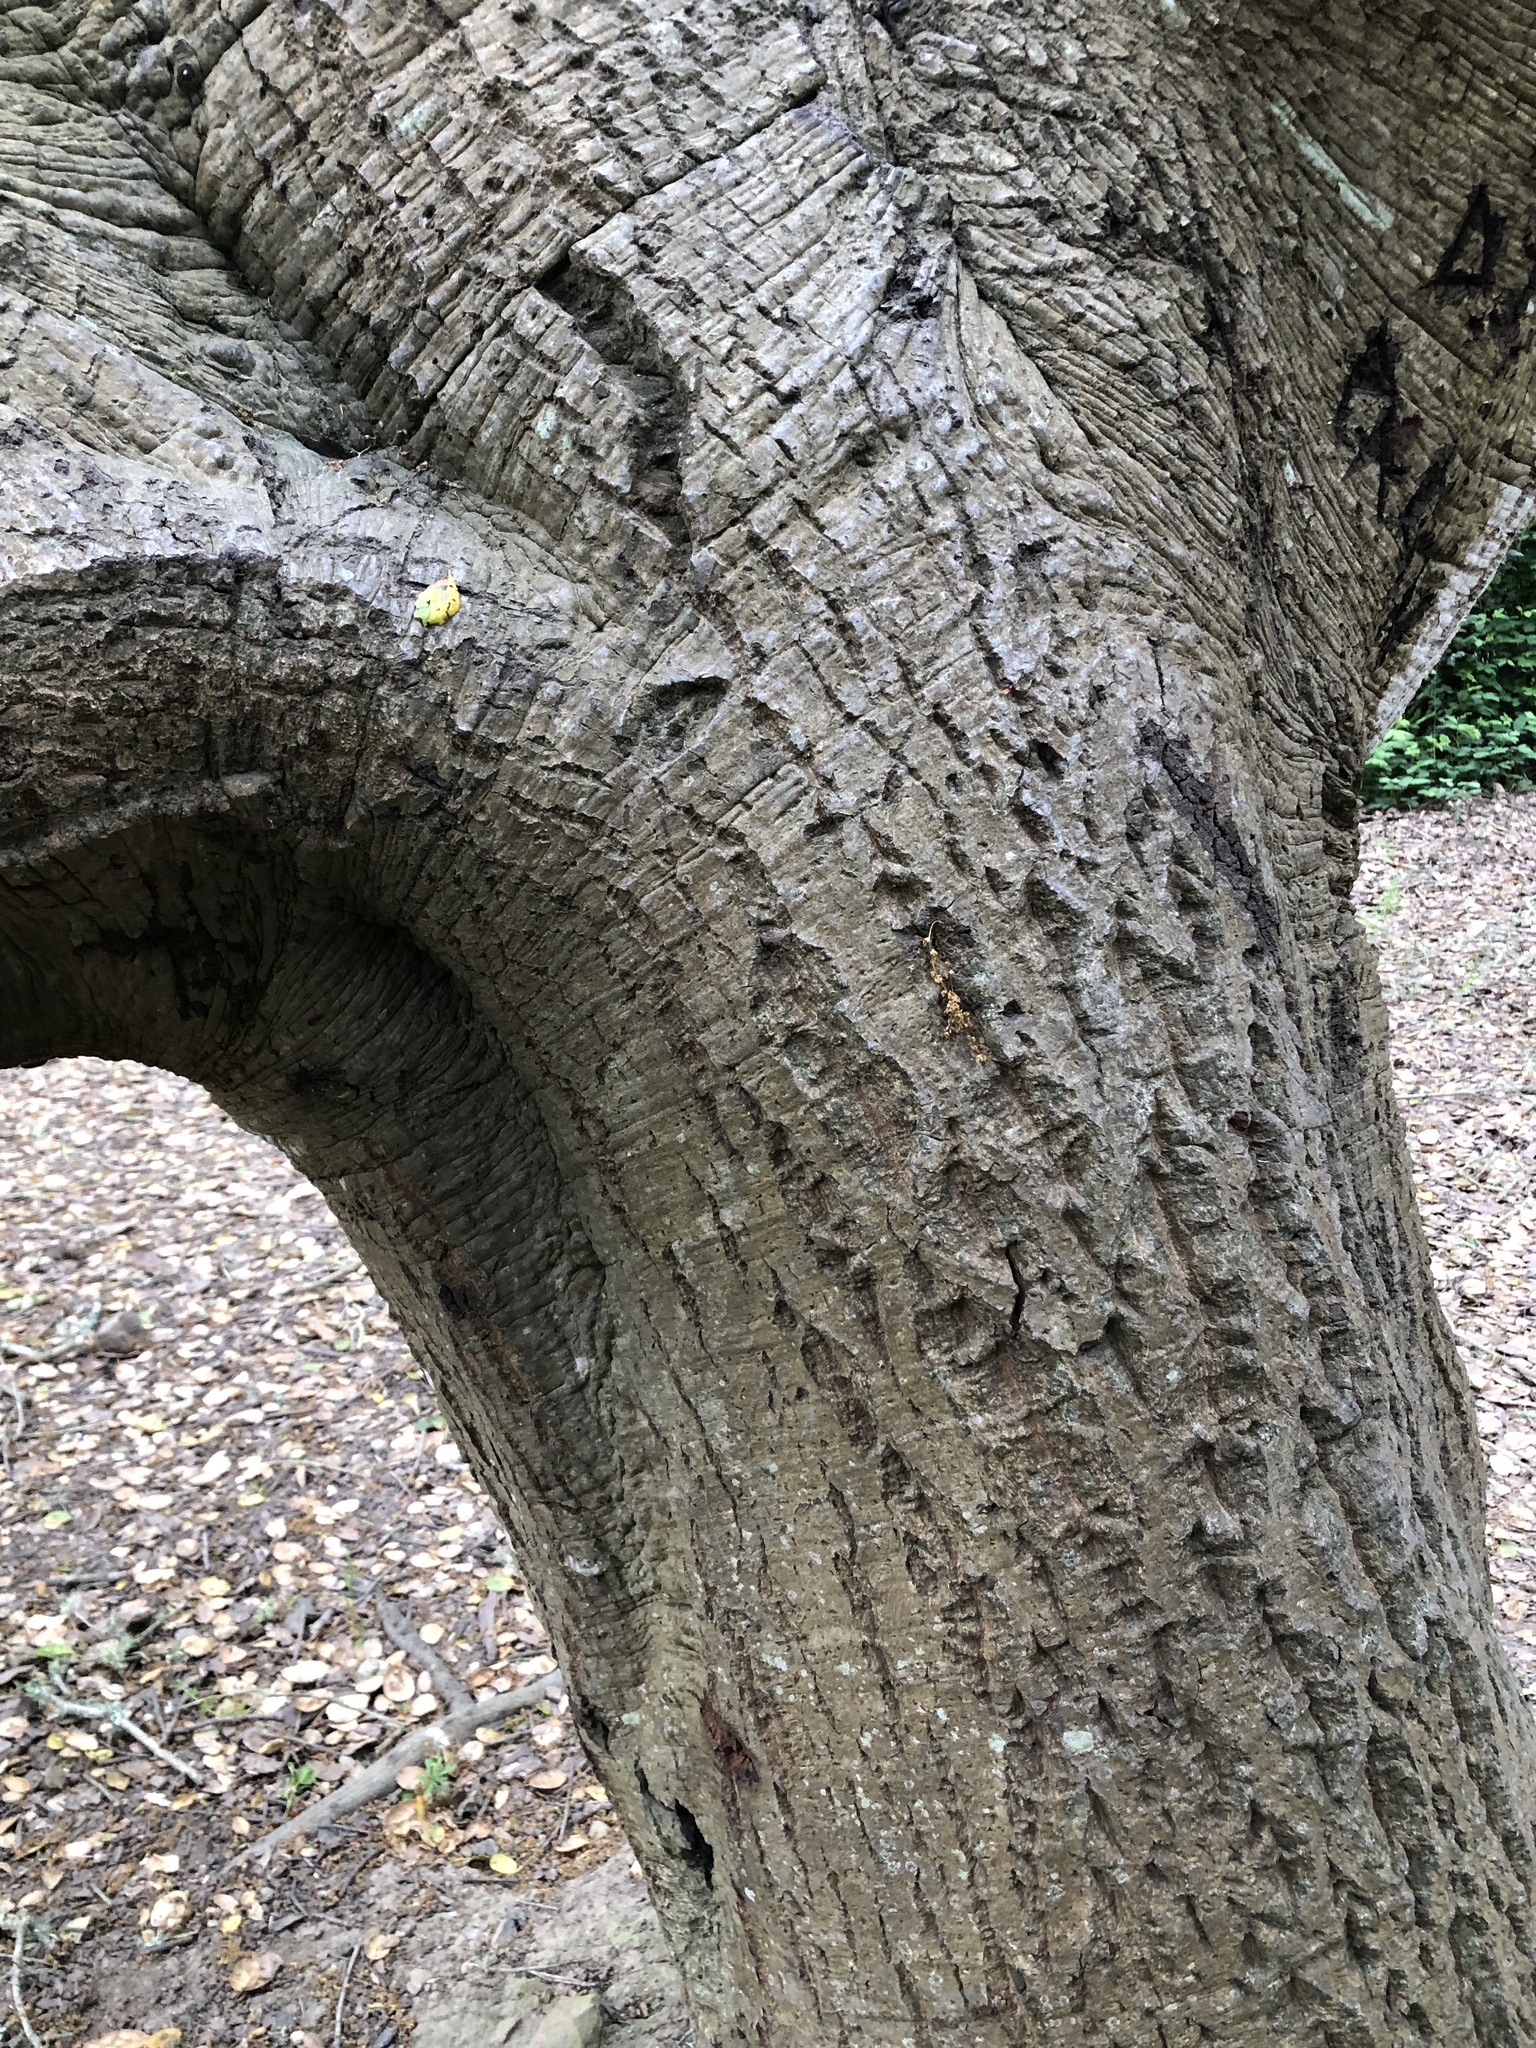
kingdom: Plantae
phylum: Tracheophyta
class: Magnoliopsida
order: Fagales
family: Fagaceae
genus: Quercus
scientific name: Quercus agrifolia
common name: California live oak
